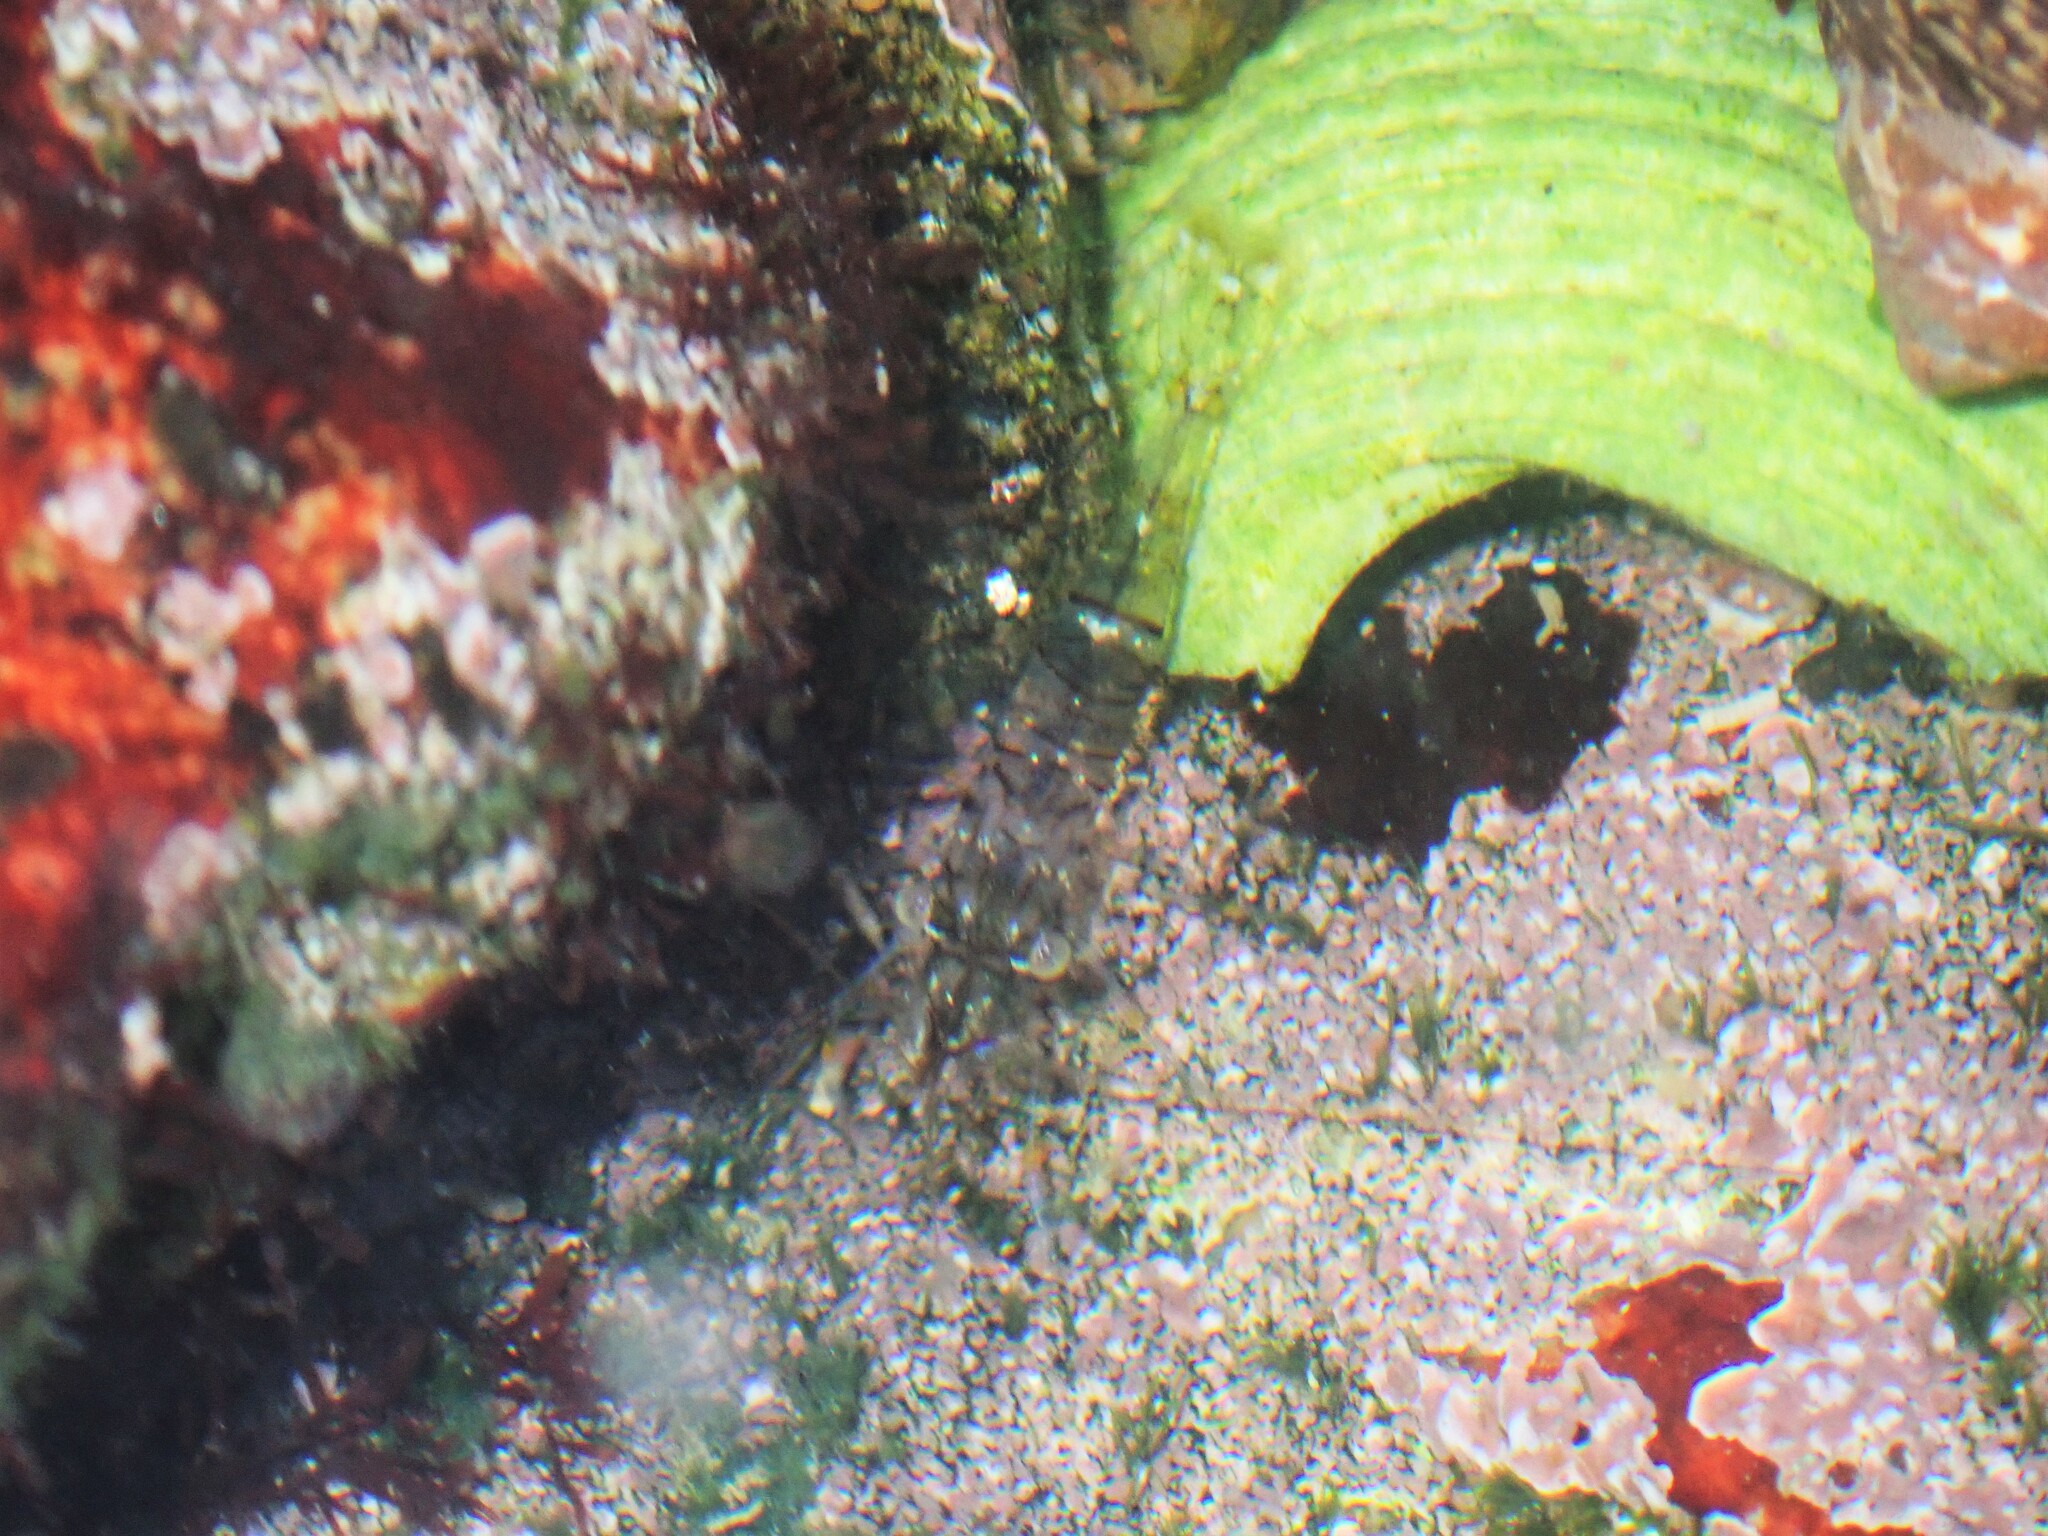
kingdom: Animalia
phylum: Arthropoda
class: Malacostraca
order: Decapoda
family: Palaemonidae
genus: Palaemon
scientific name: Palaemon elegans
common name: Grass prawm
